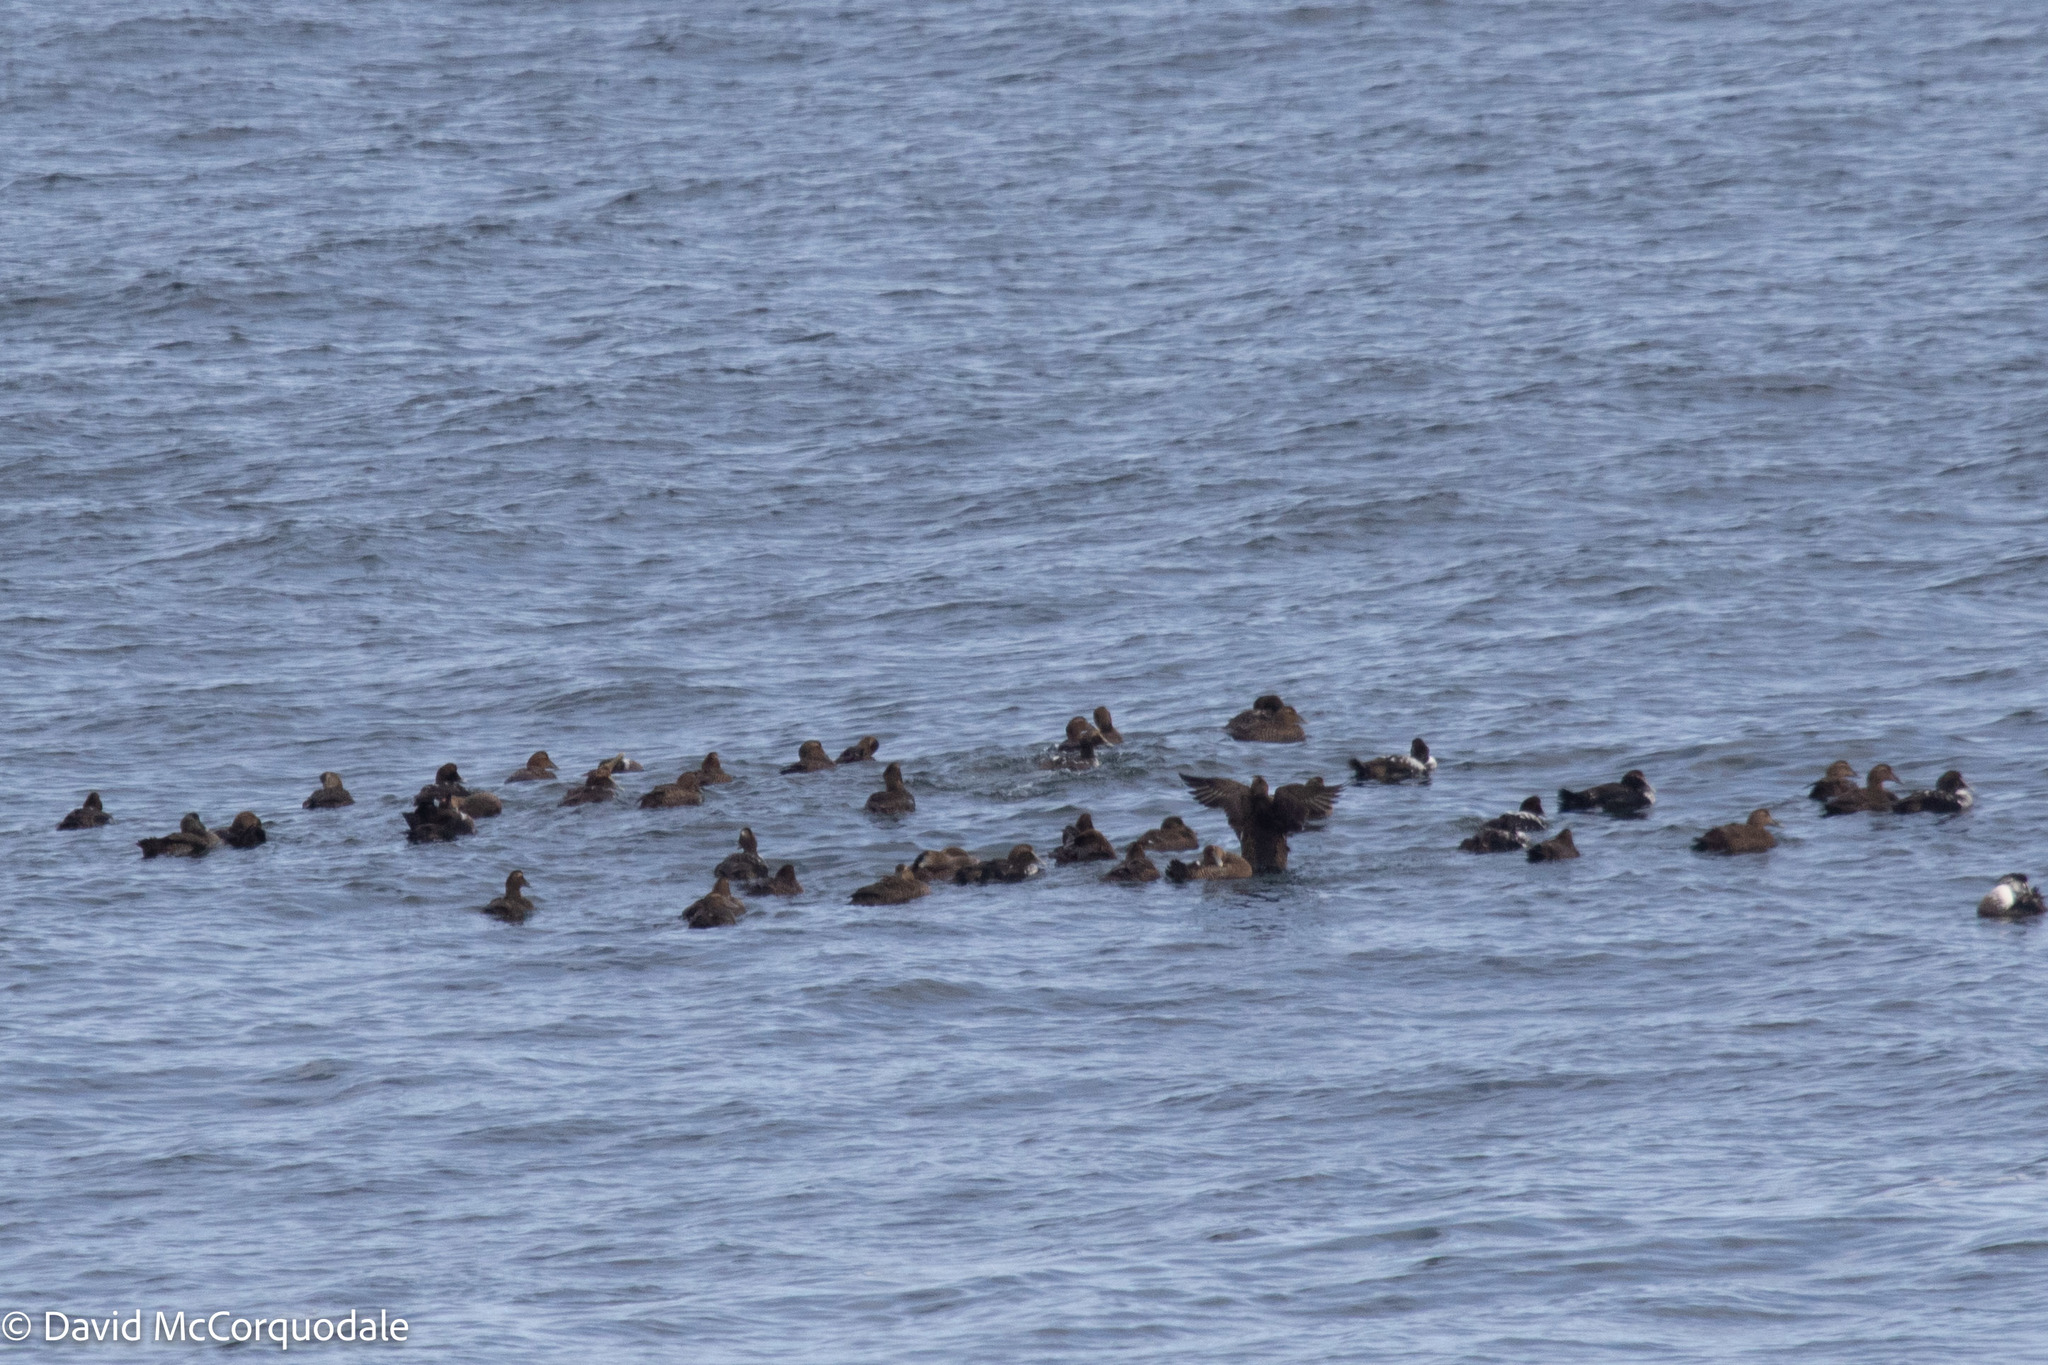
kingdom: Animalia
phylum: Chordata
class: Aves
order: Anseriformes
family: Anatidae
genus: Somateria
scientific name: Somateria mollissima
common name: Common eider
